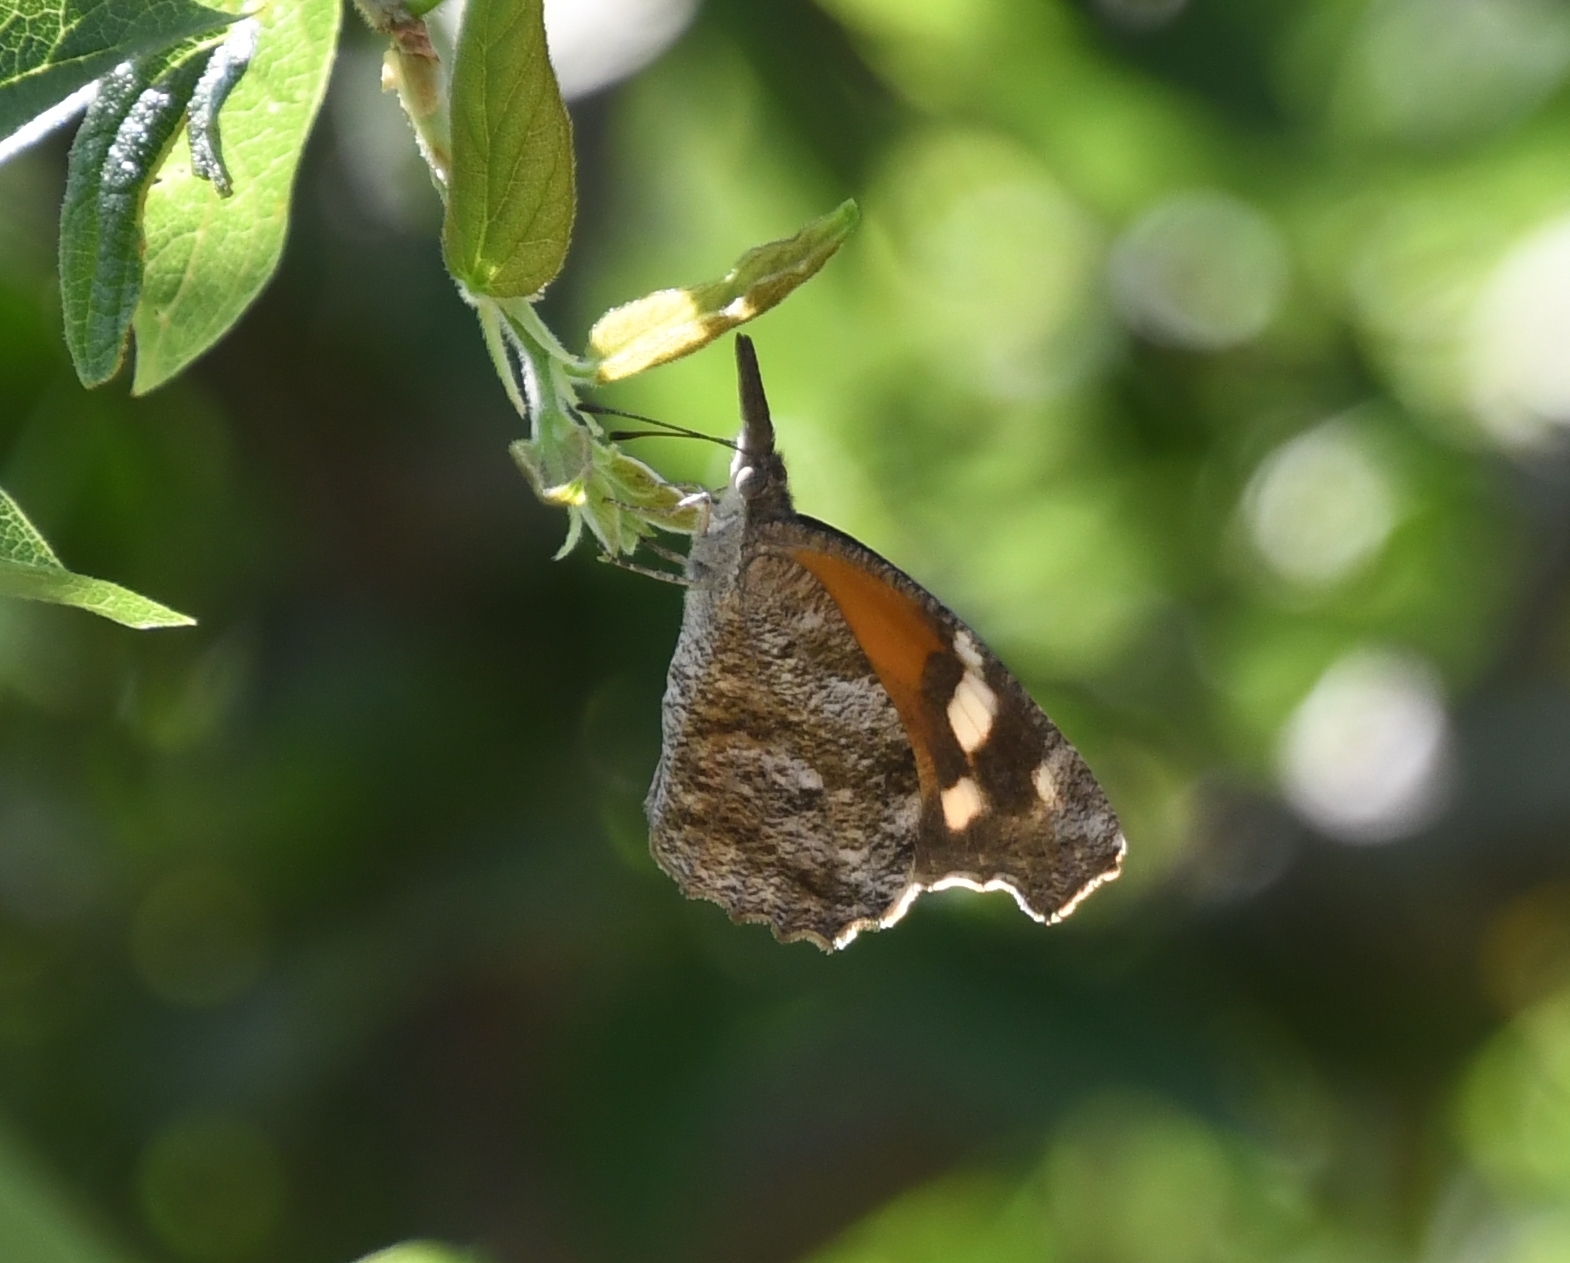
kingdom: Animalia
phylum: Arthropoda
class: Insecta
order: Lepidoptera
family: Nymphalidae
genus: Libytheana
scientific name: Libytheana carinenta
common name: American snout
